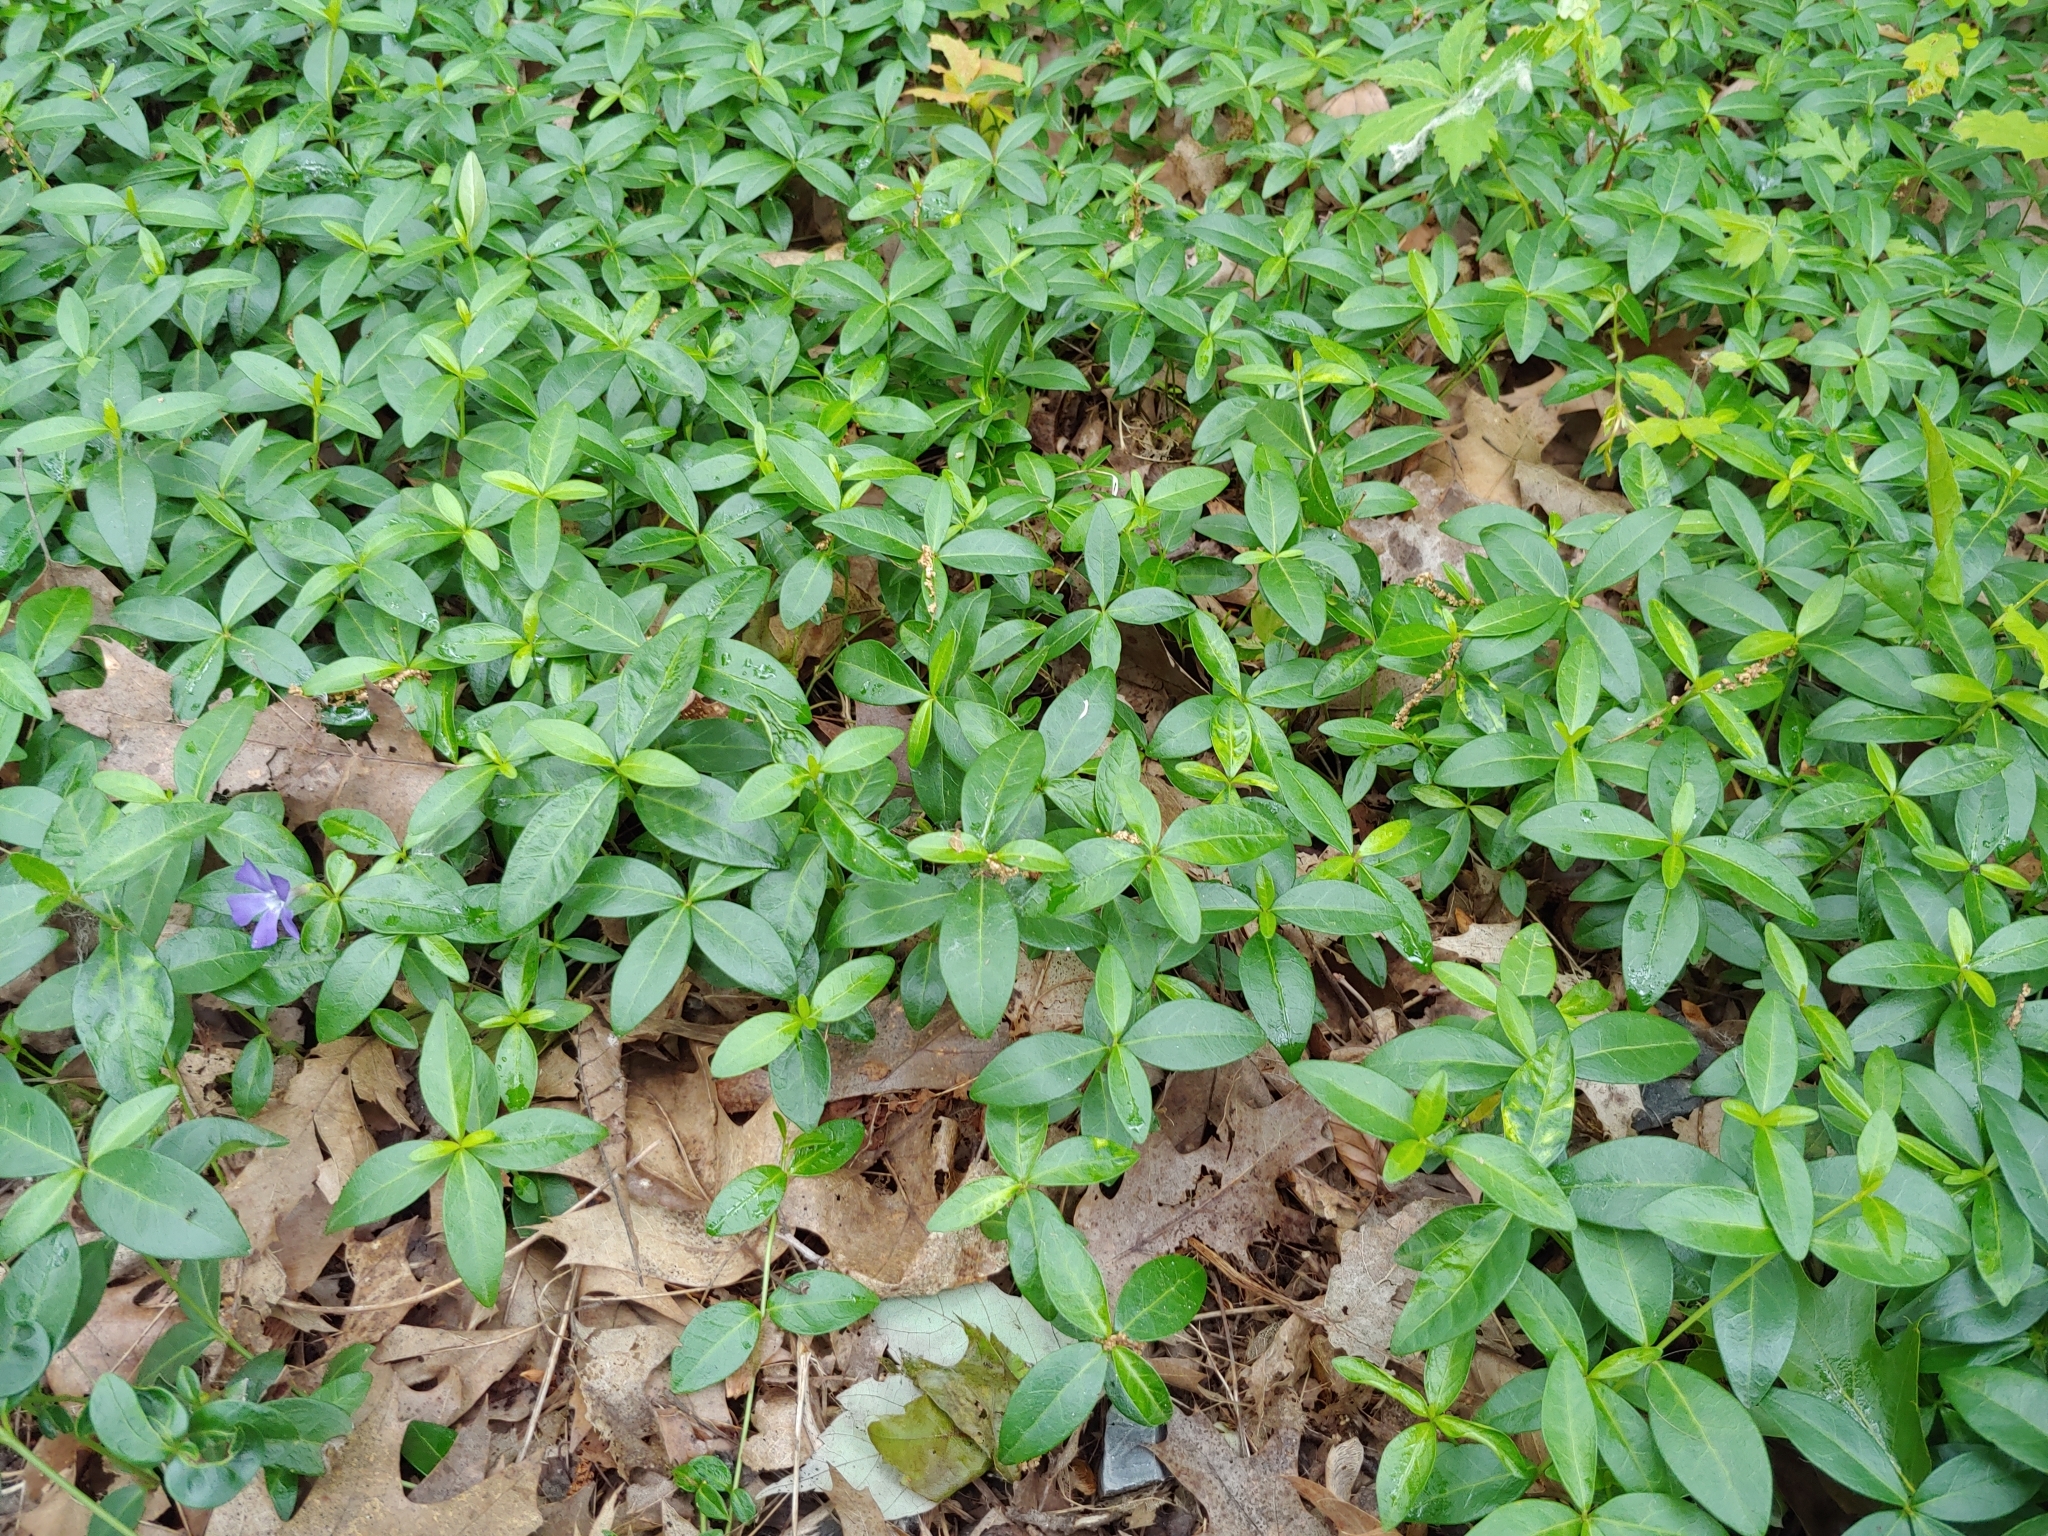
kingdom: Plantae
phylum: Tracheophyta
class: Magnoliopsida
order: Gentianales
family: Apocynaceae
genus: Vinca
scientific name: Vinca minor
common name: Lesser periwinkle
